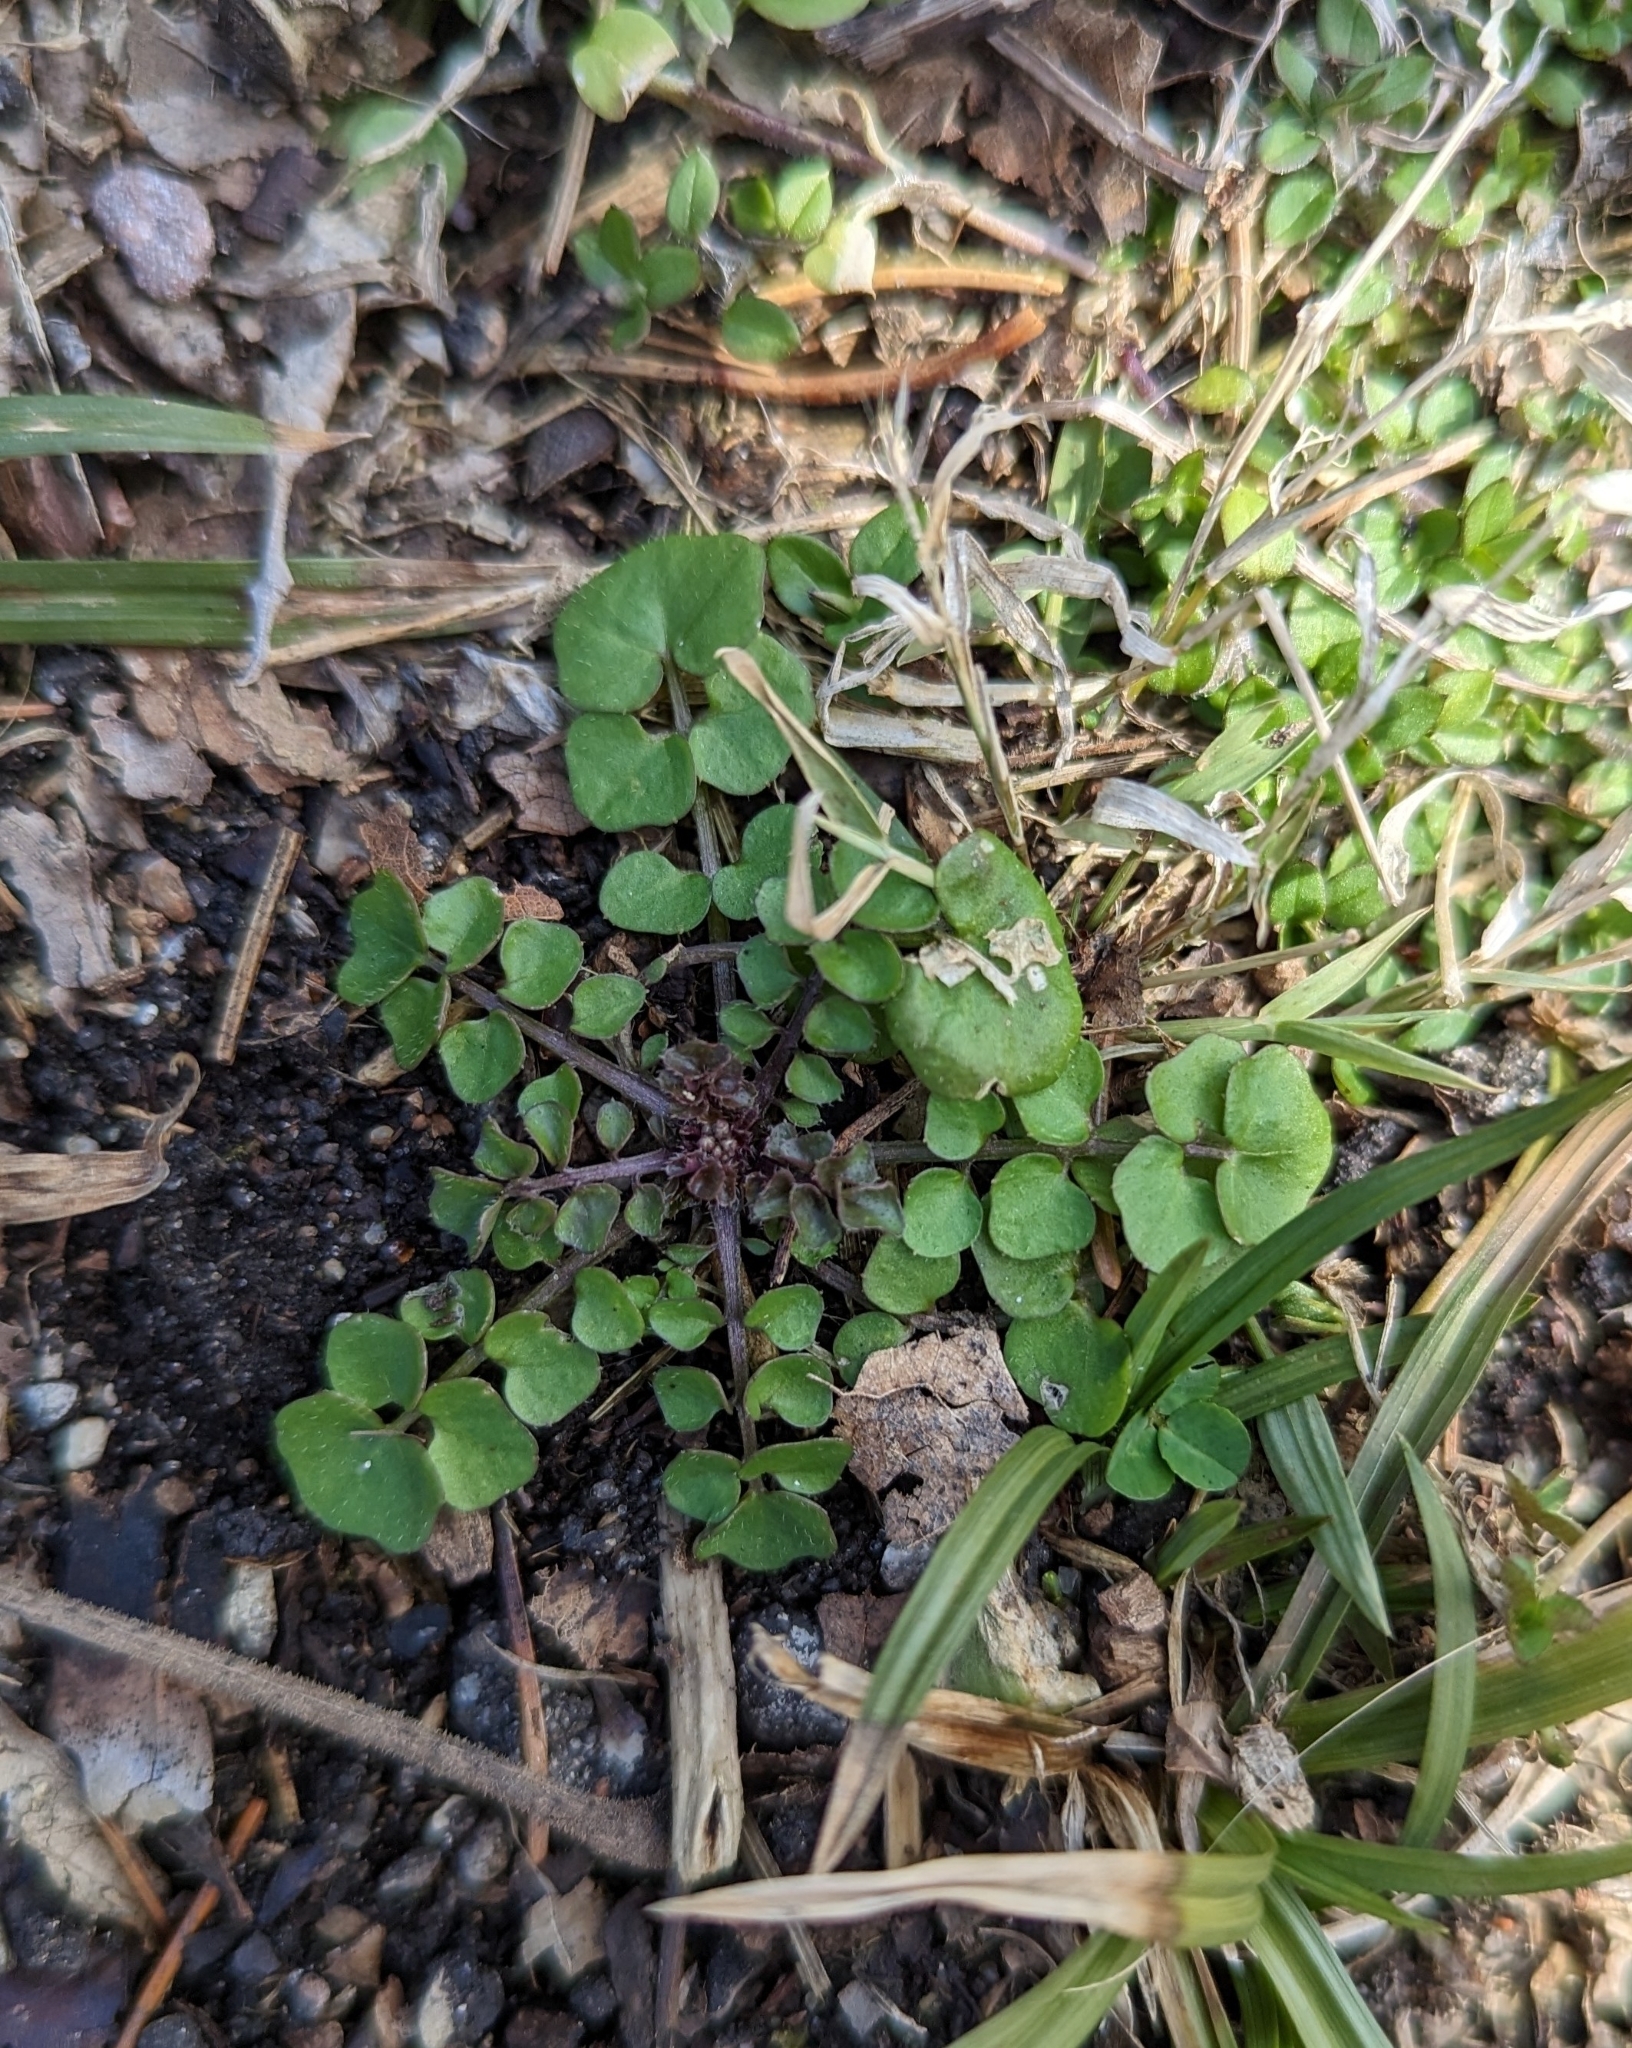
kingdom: Plantae
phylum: Tracheophyta
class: Magnoliopsida
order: Brassicales
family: Brassicaceae
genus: Cardamine
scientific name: Cardamine hirsuta
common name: Hairy bittercress
